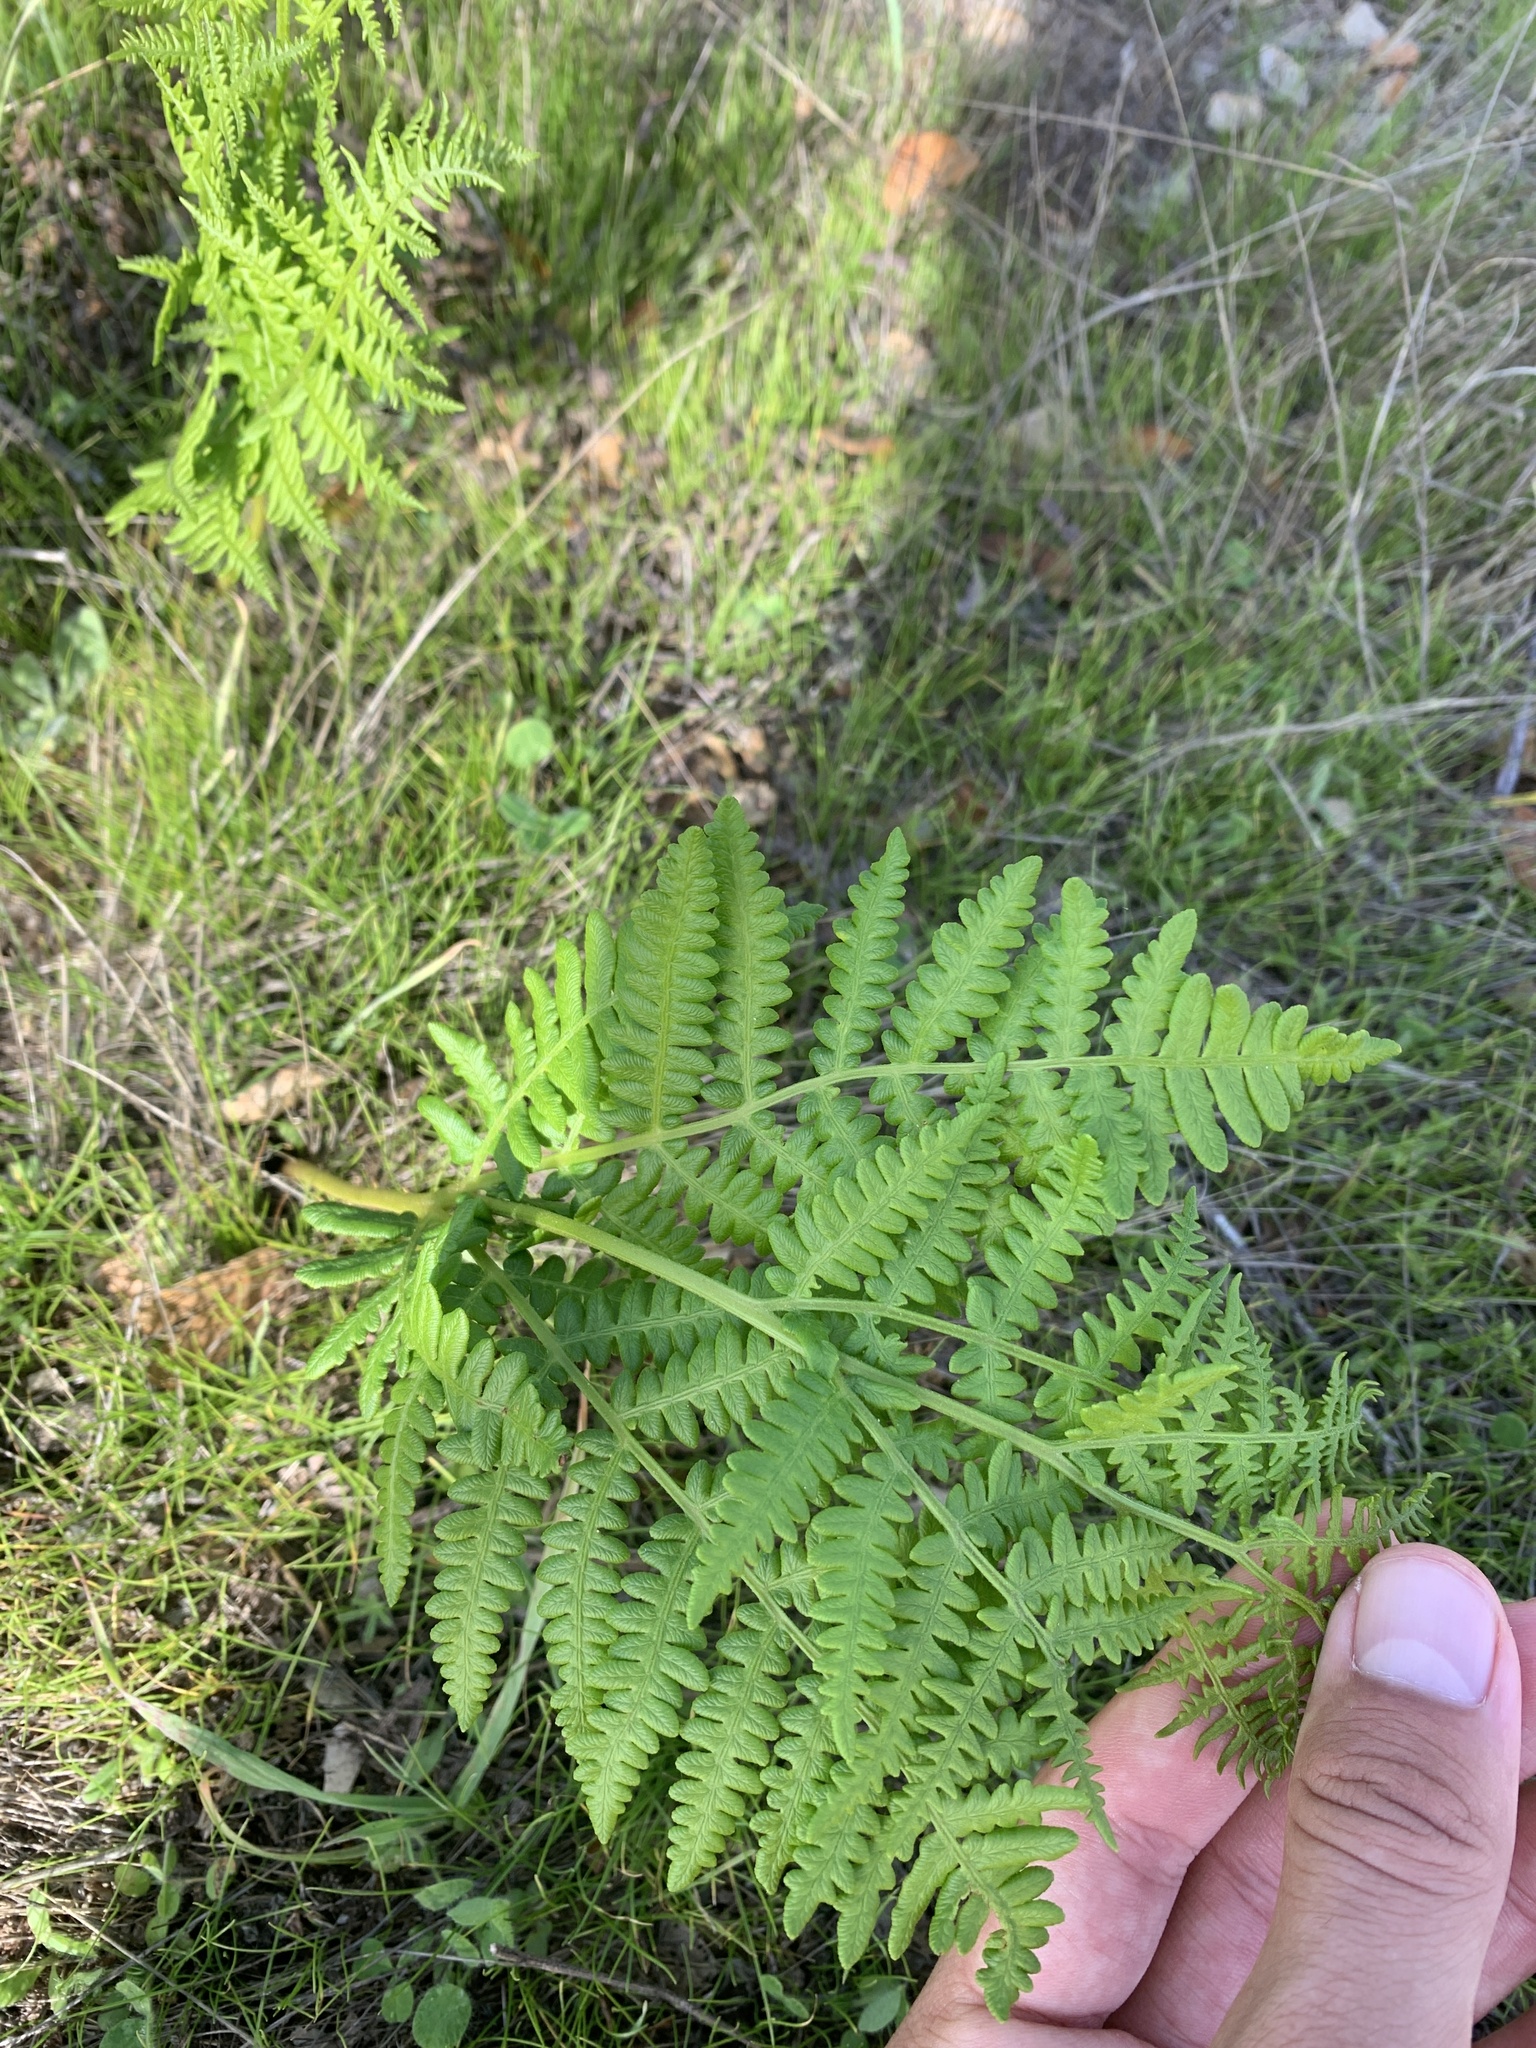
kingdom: Plantae
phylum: Tracheophyta
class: Polypodiopsida
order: Polypodiales
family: Dennstaedtiaceae
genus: Pteridium
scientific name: Pteridium aquilinum
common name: Bracken
